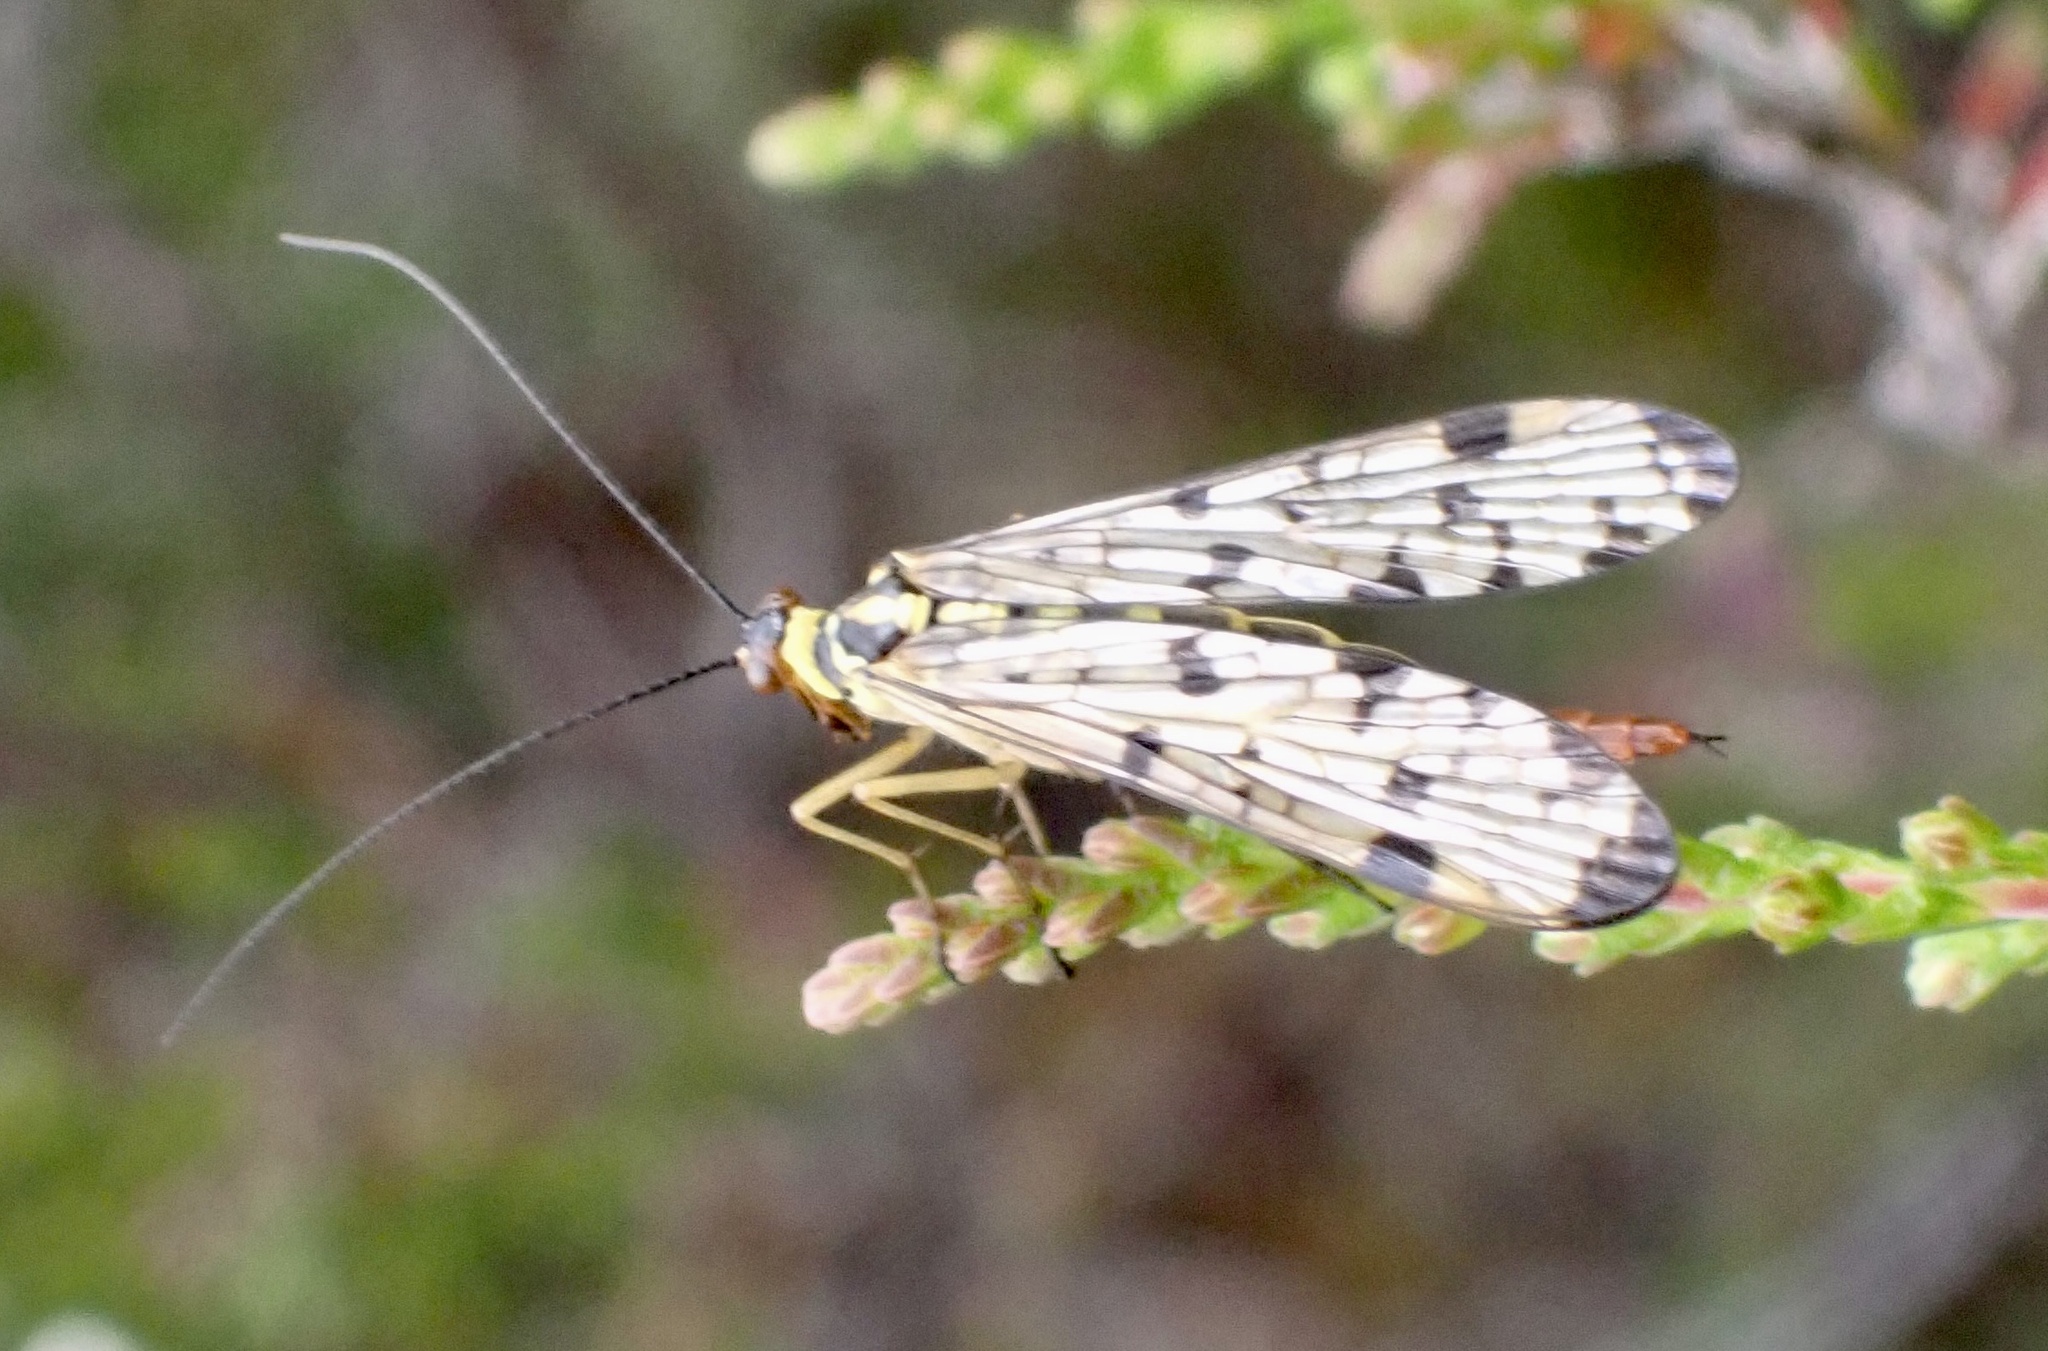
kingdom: Animalia
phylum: Arthropoda
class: Insecta
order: Mecoptera
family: Panorpidae
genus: Panorpa
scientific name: Panorpa germanica
